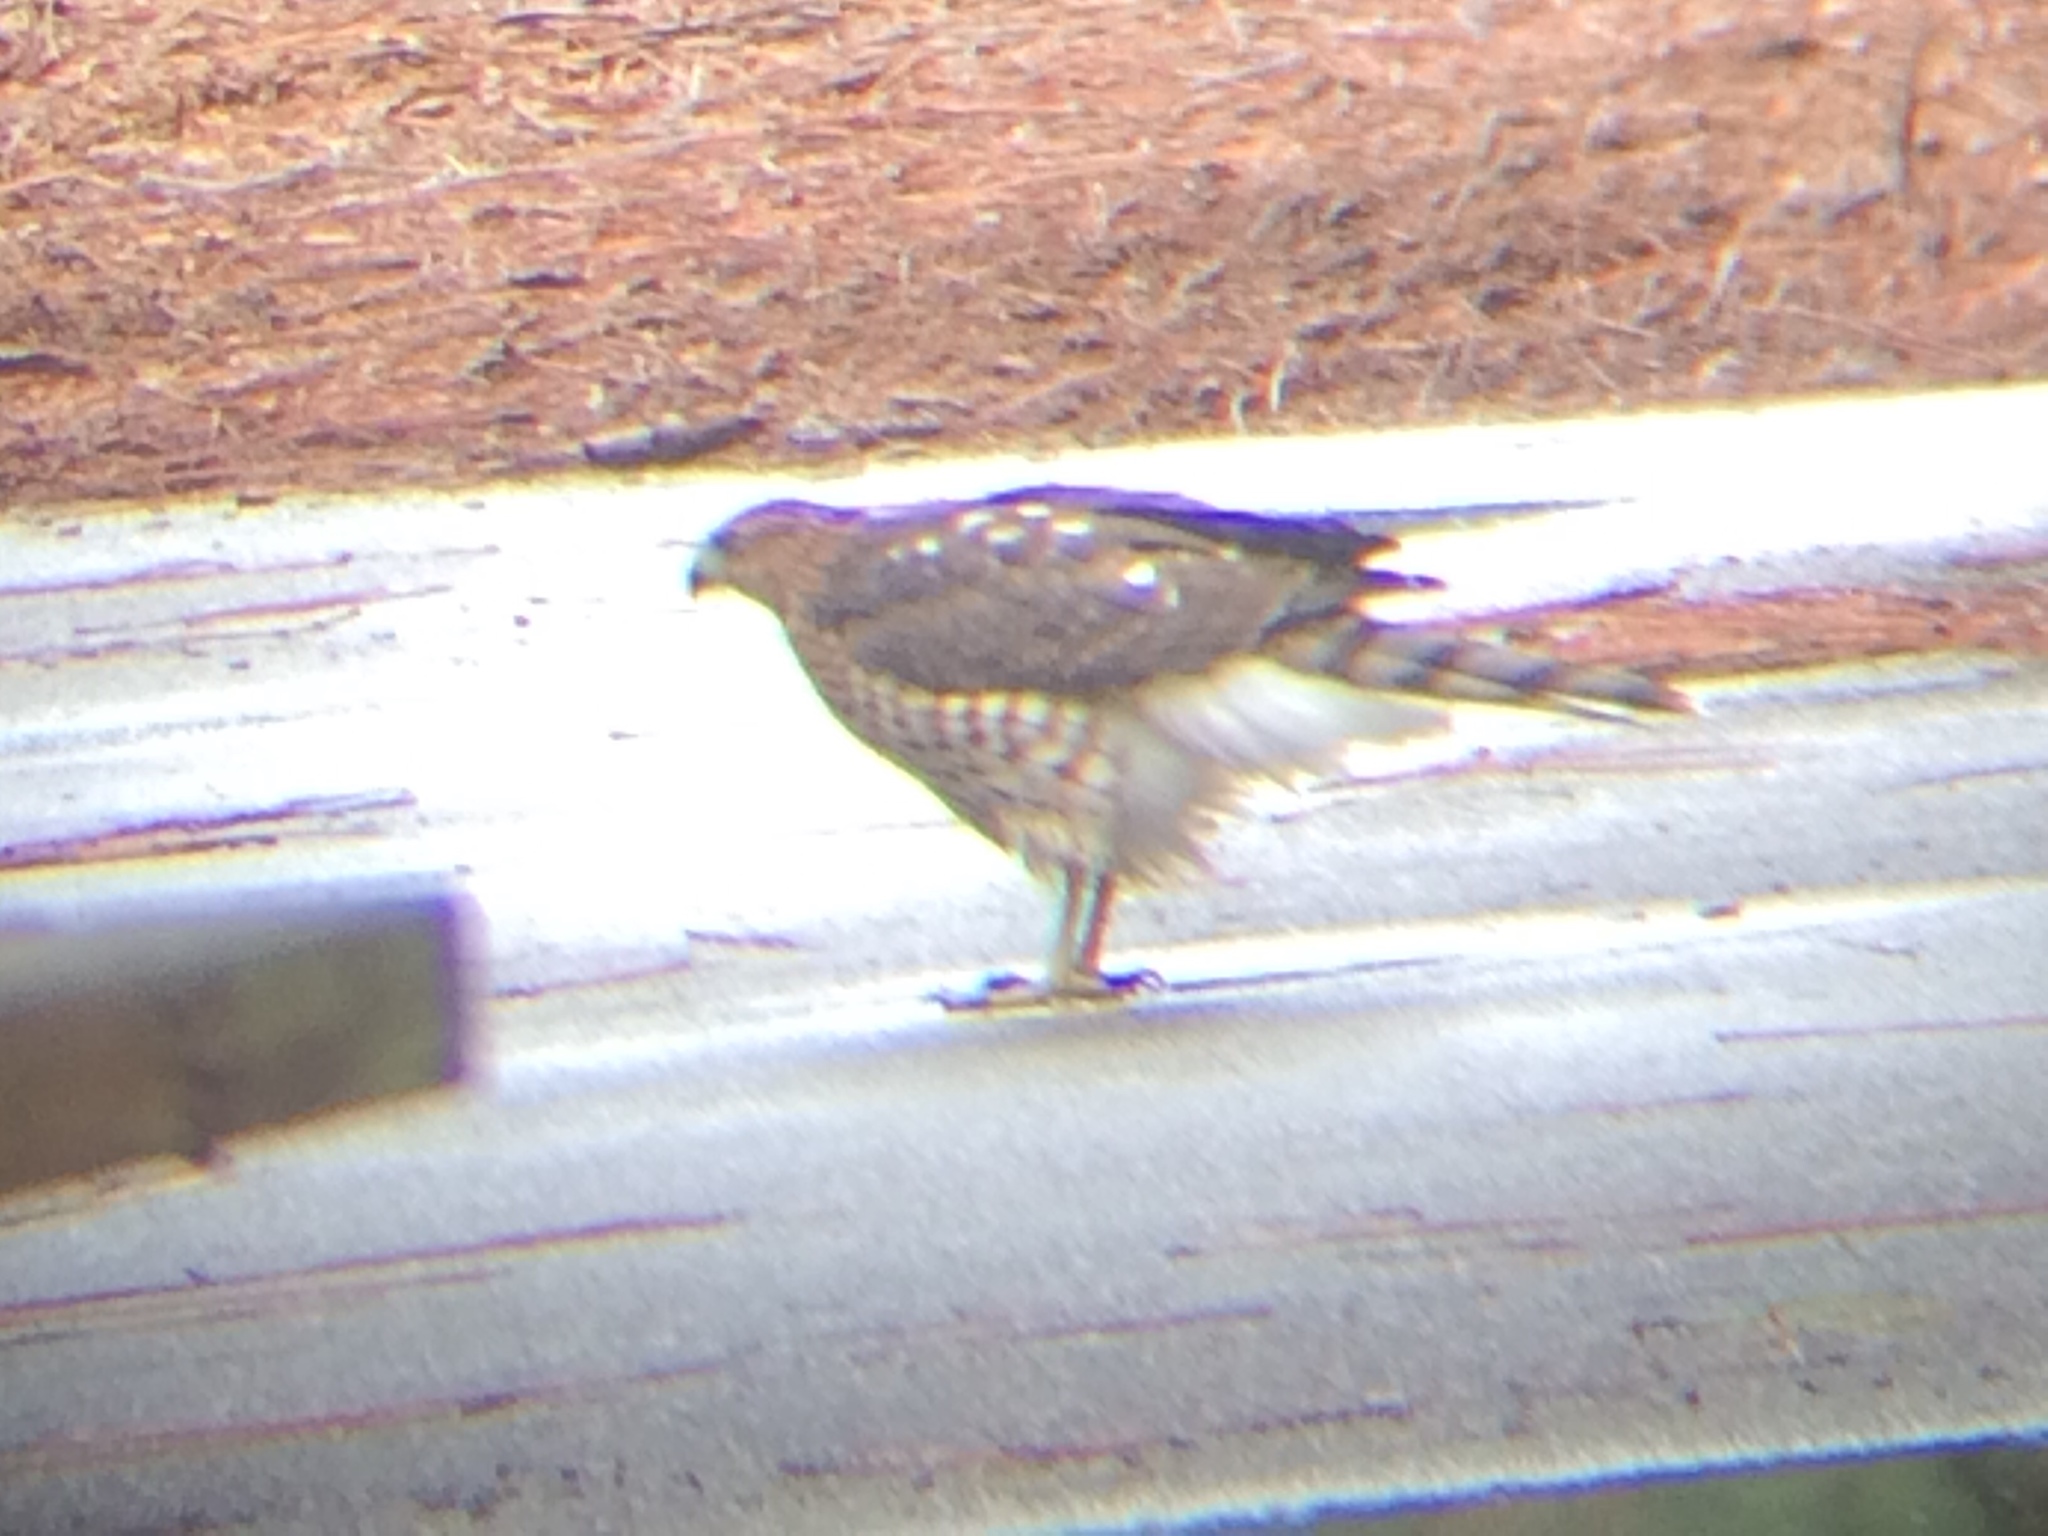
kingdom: Animalia
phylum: Chordata
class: Aves
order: Accipitriformes
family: Accipitridae
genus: Accipiter
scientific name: Accipiter cooperii
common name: Cooper's hawk
